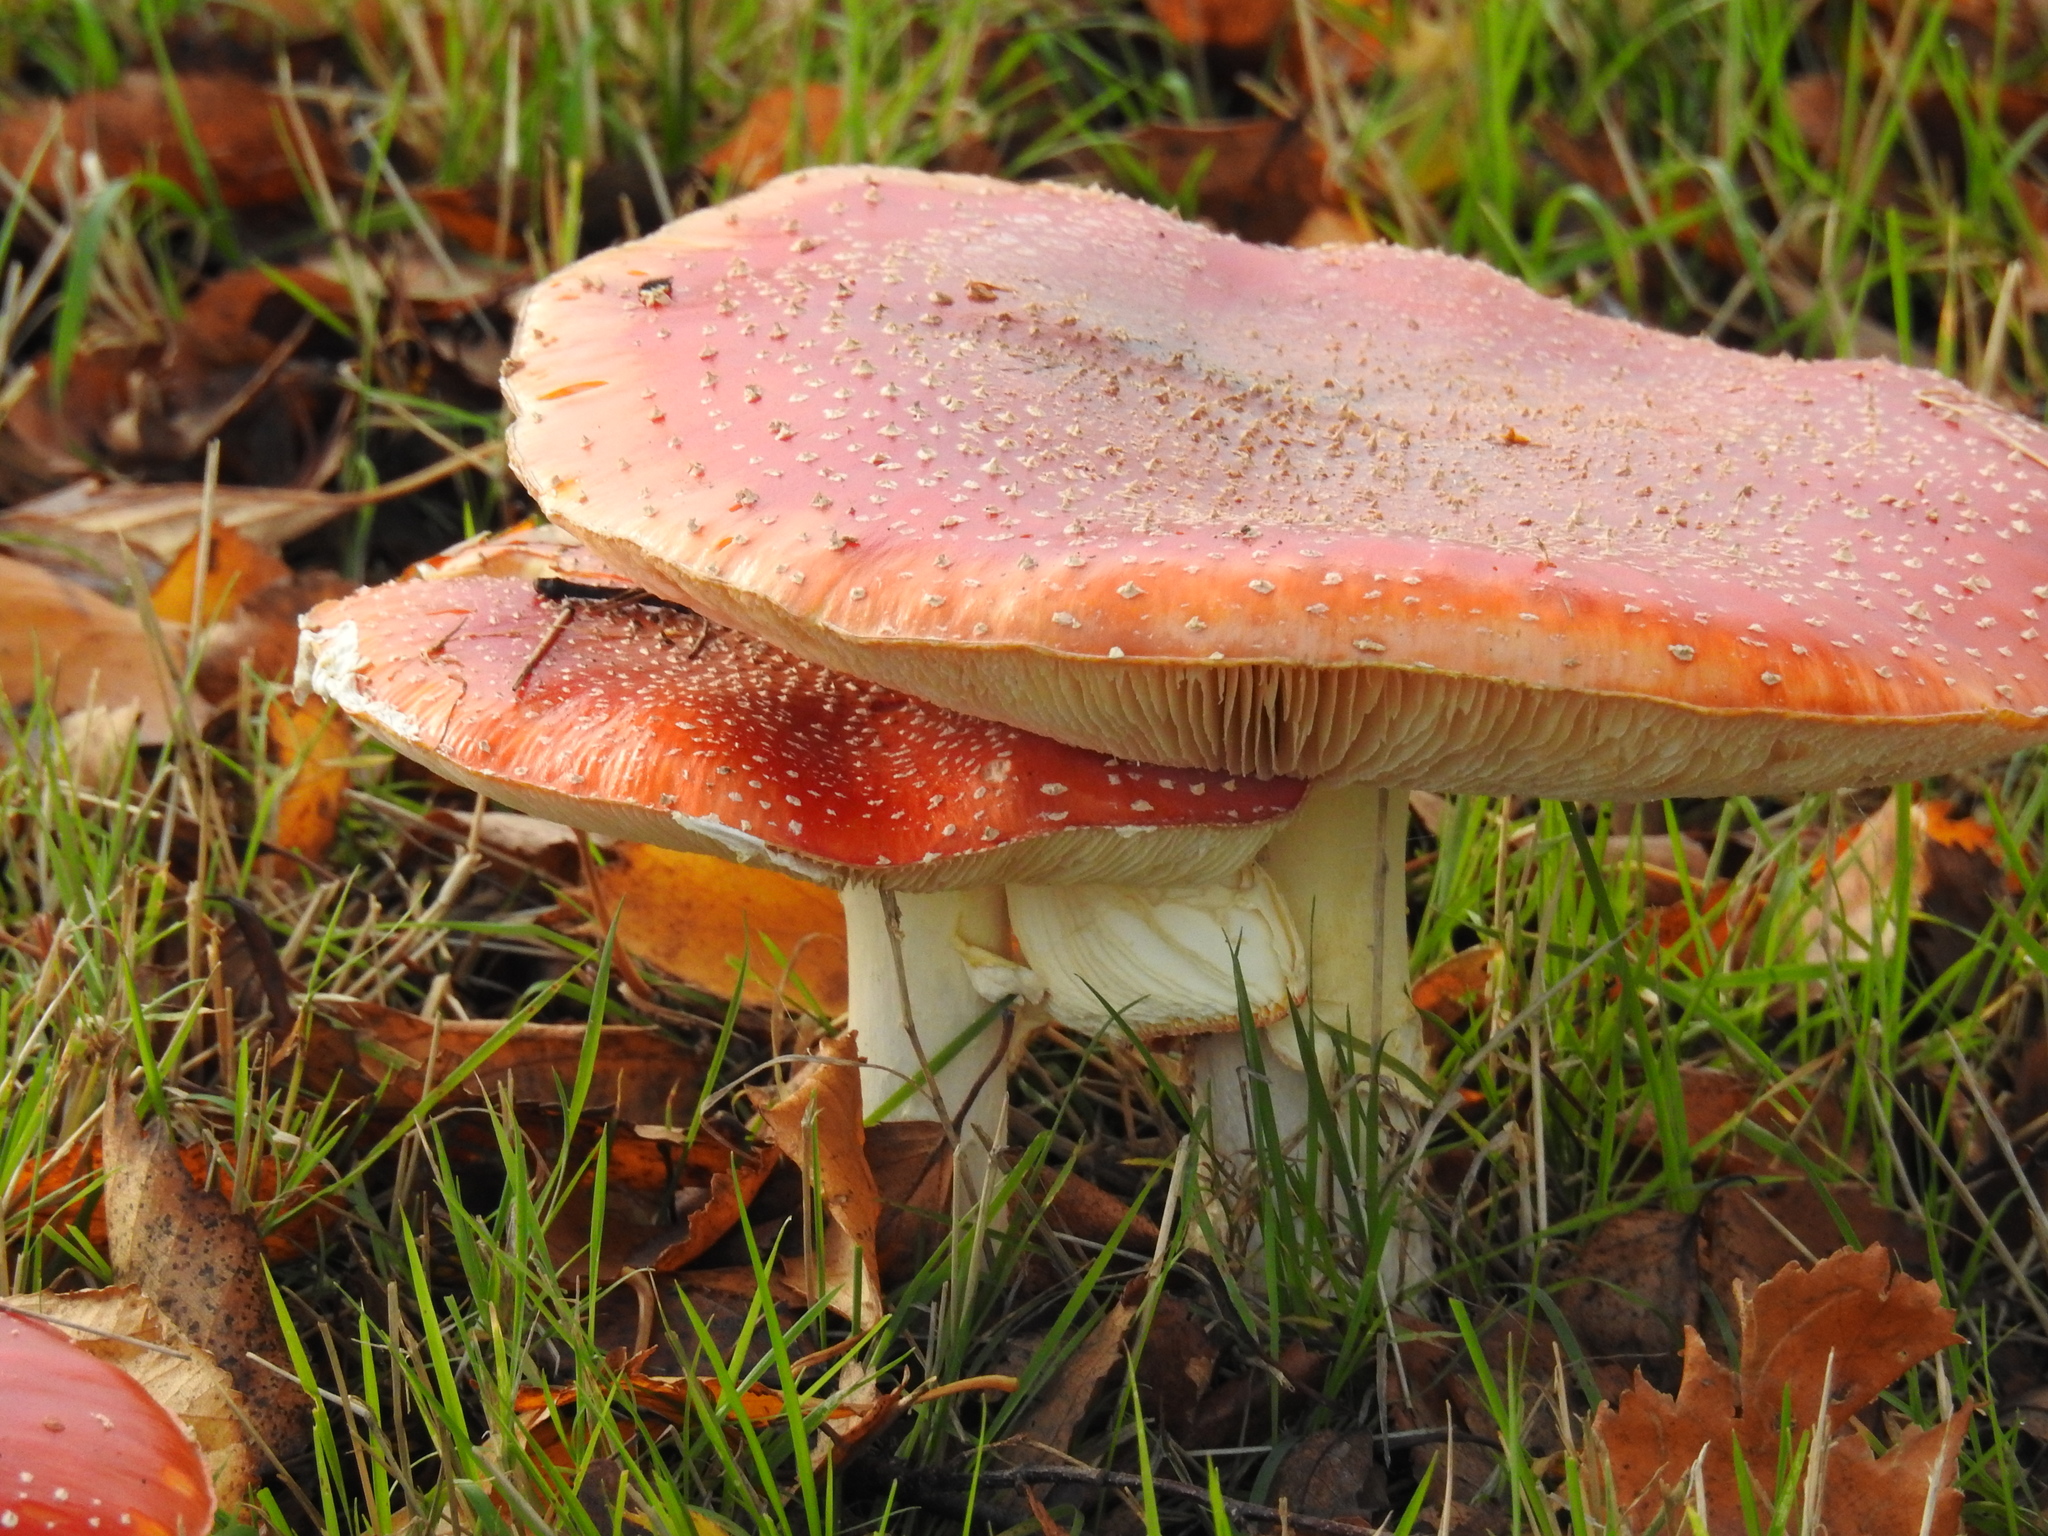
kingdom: Fungi
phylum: Basidiomycota
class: Agaricomycetes
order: Agaricales
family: Amanitaceae
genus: Amanita
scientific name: Amanita muscaria
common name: Fly agaric
